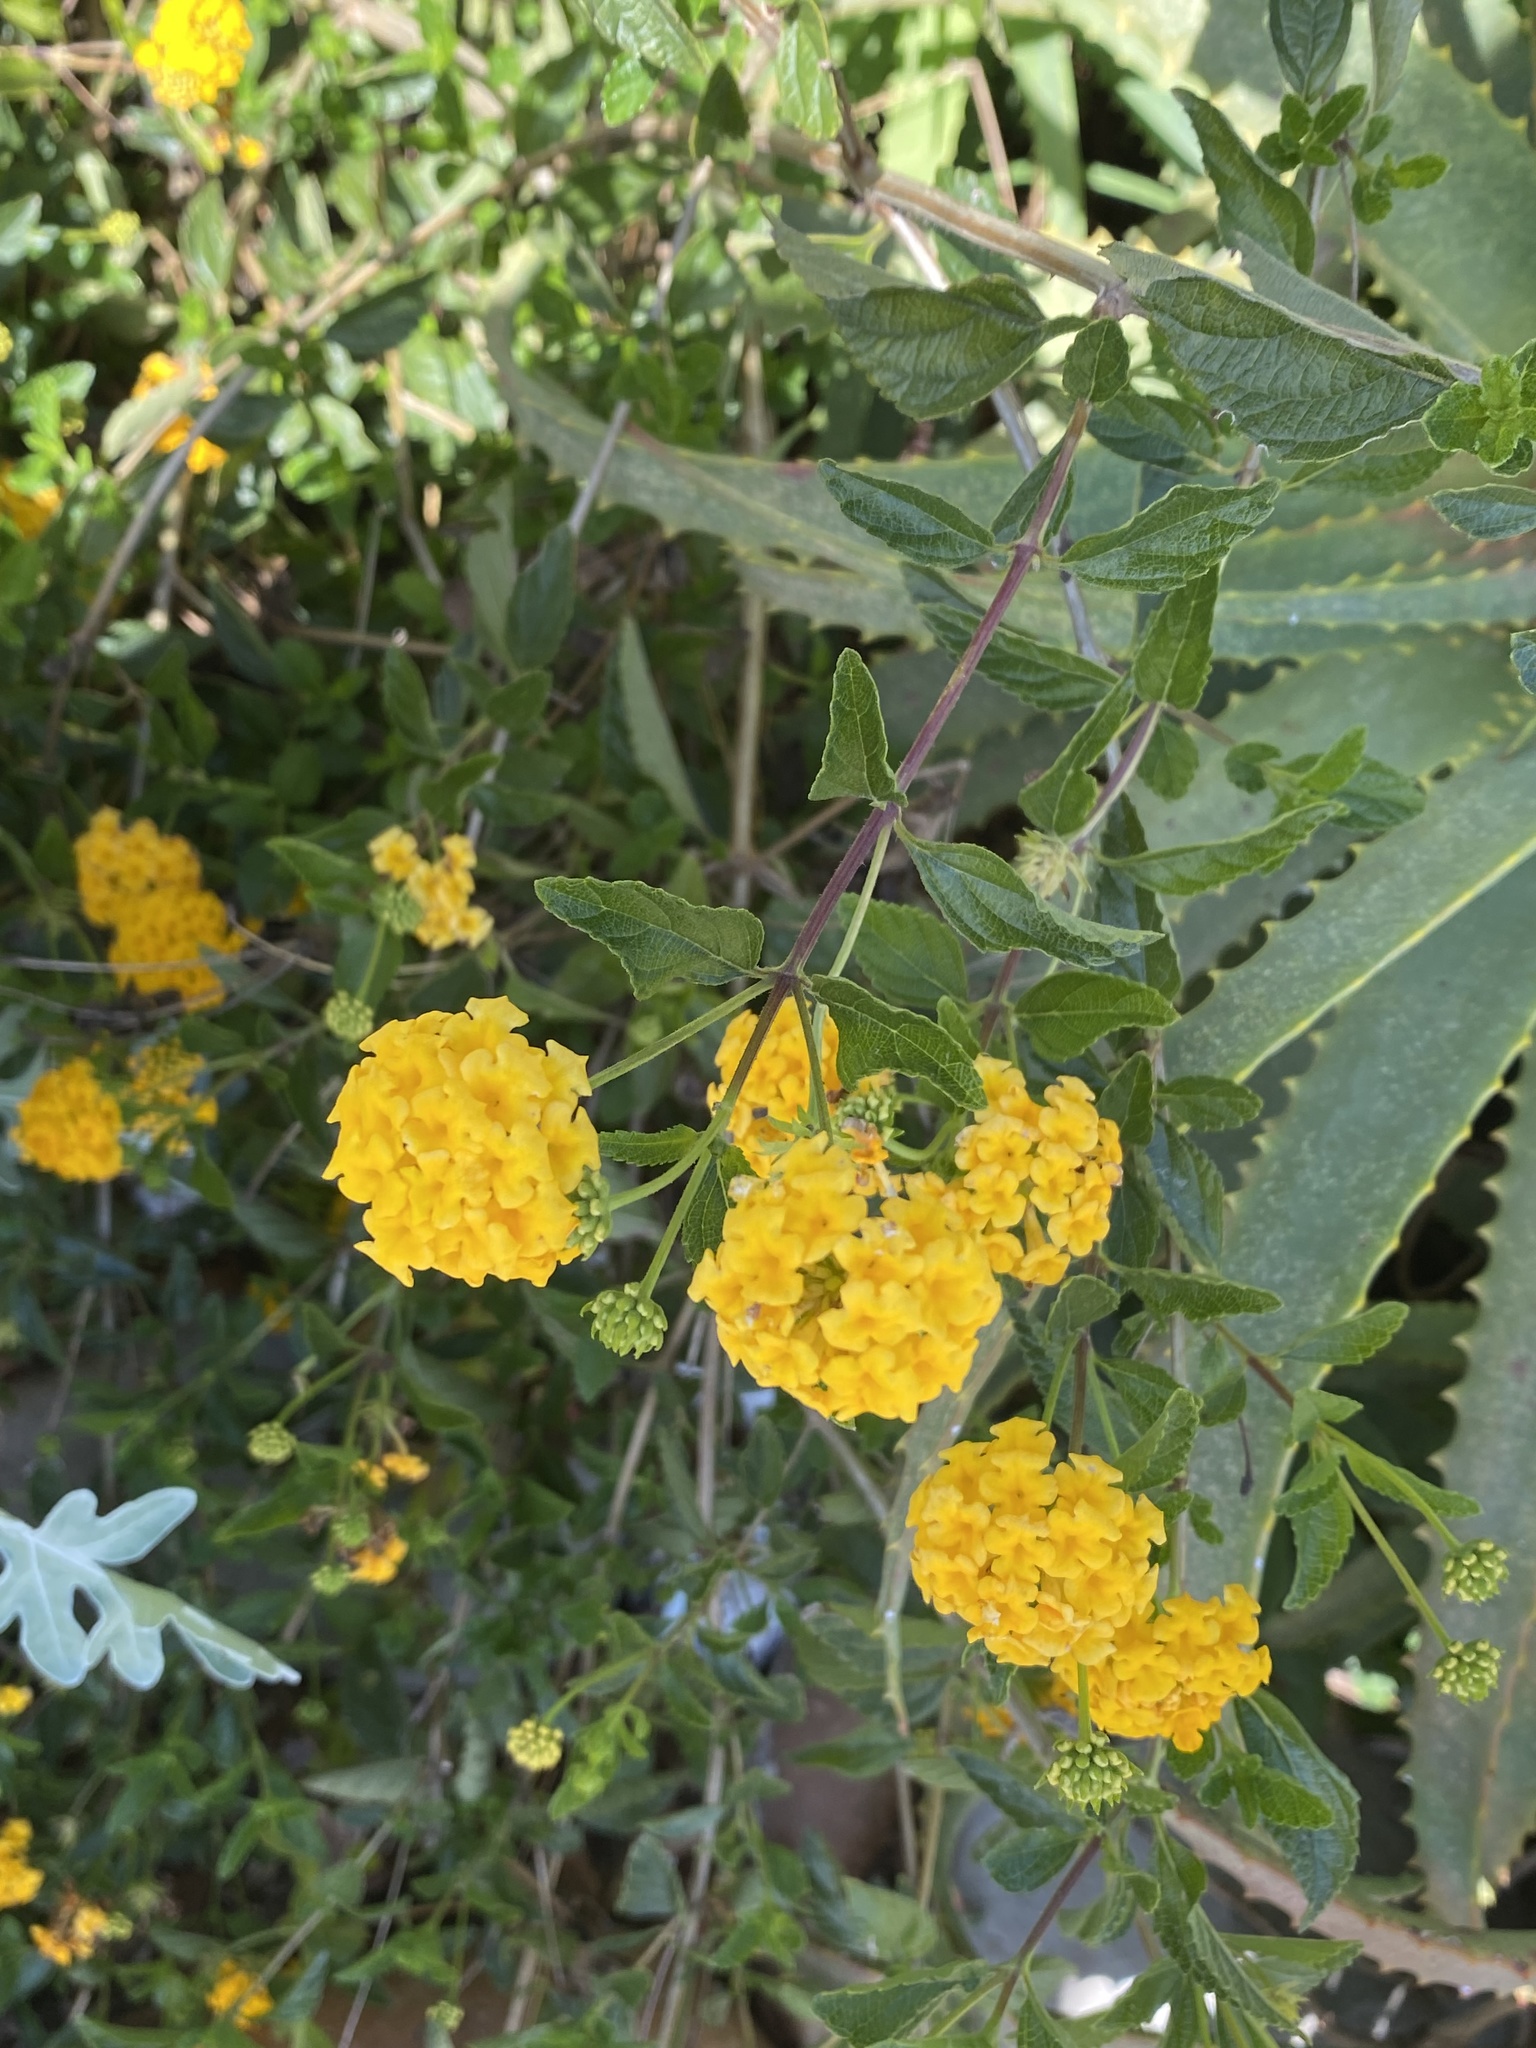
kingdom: Plantae
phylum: Tracheophyta
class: Magnoliopsida
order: Lamiales
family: Verbenaceae
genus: Lantana
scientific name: Lantana polyacantha
